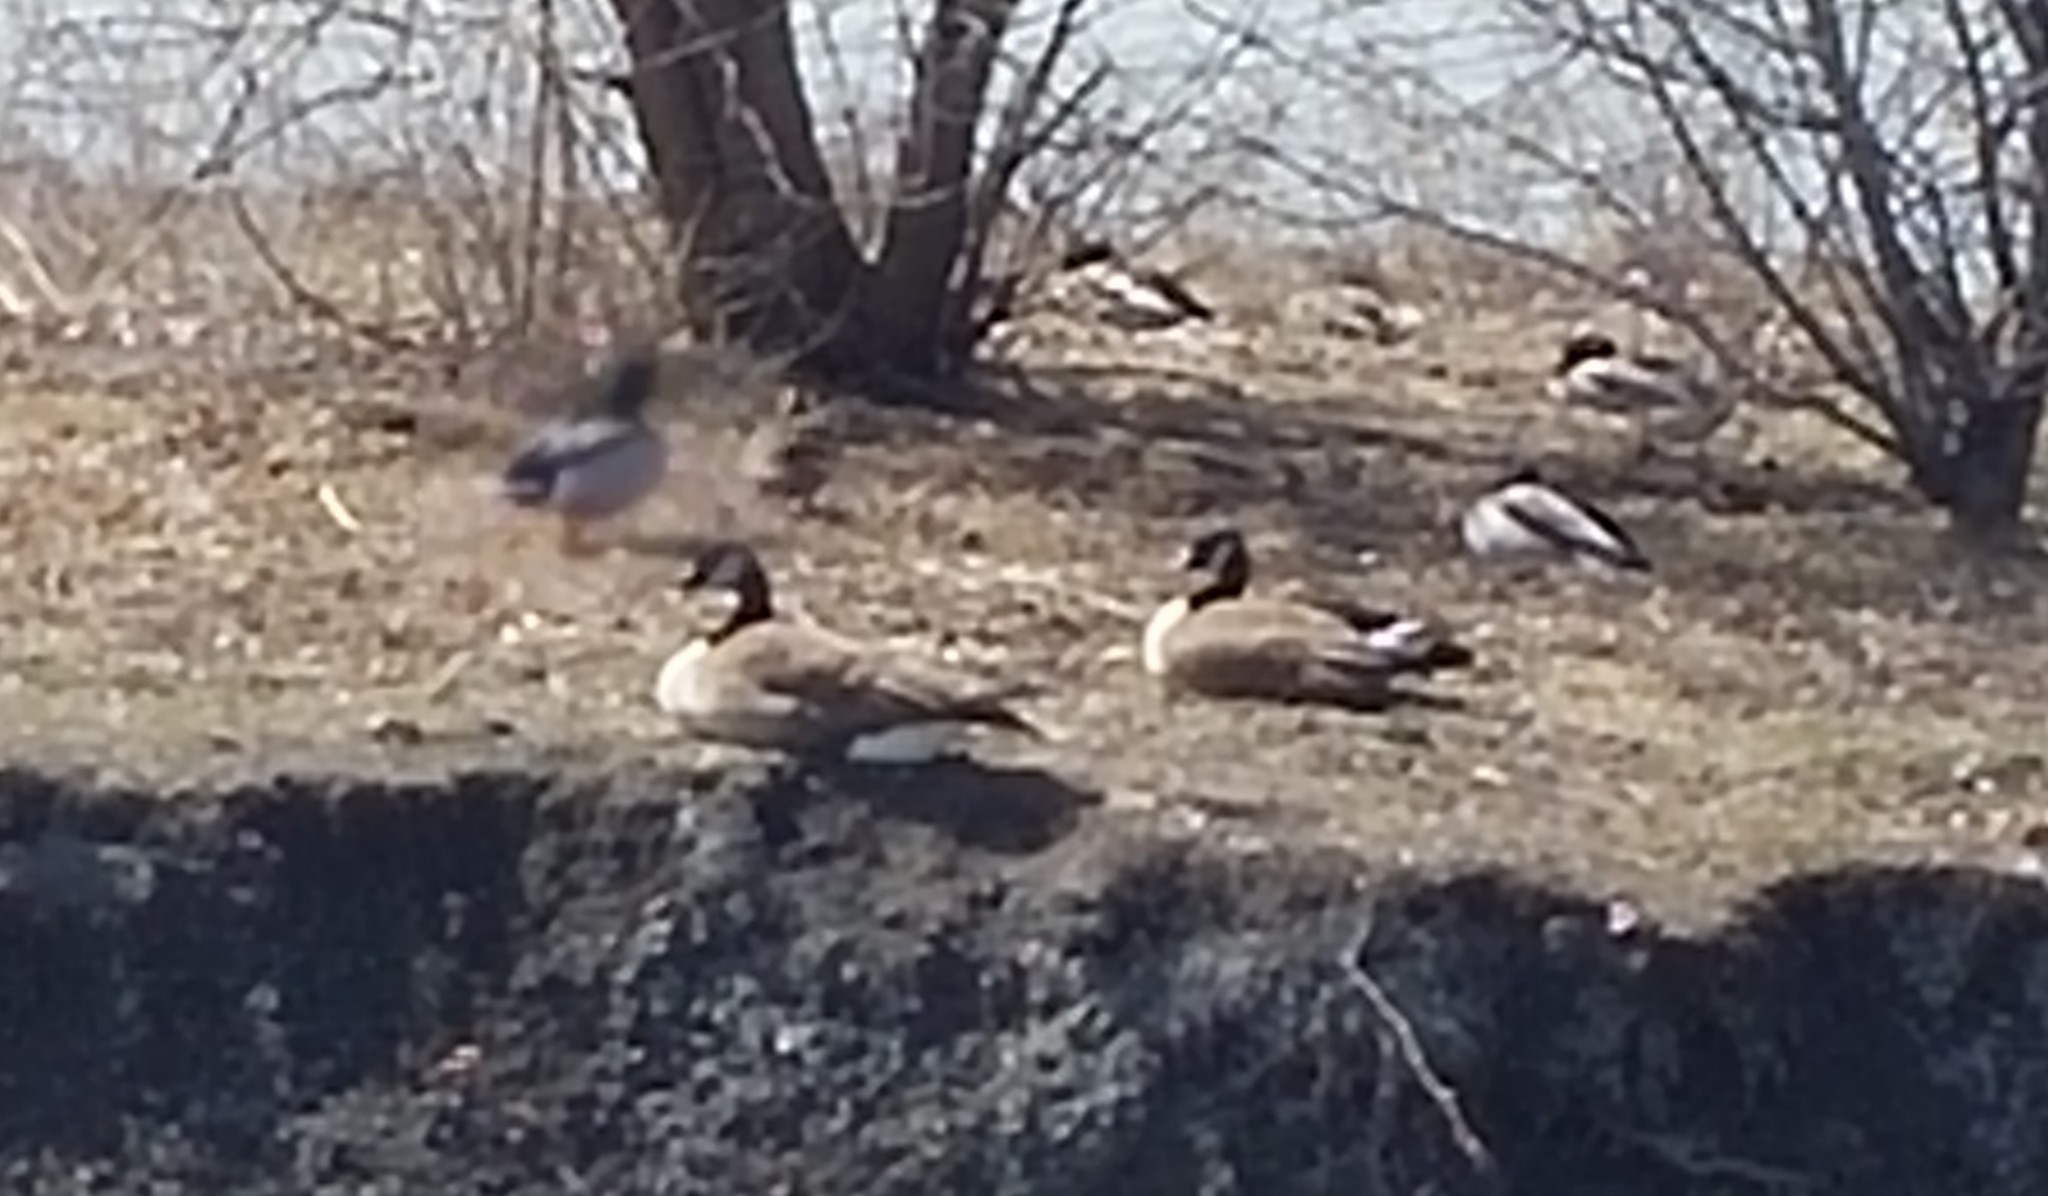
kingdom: Animalia
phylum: Chordata
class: Aves
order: Anseriformes
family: Anatidae
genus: Branta
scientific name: Branta canadensis
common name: Canada goose
